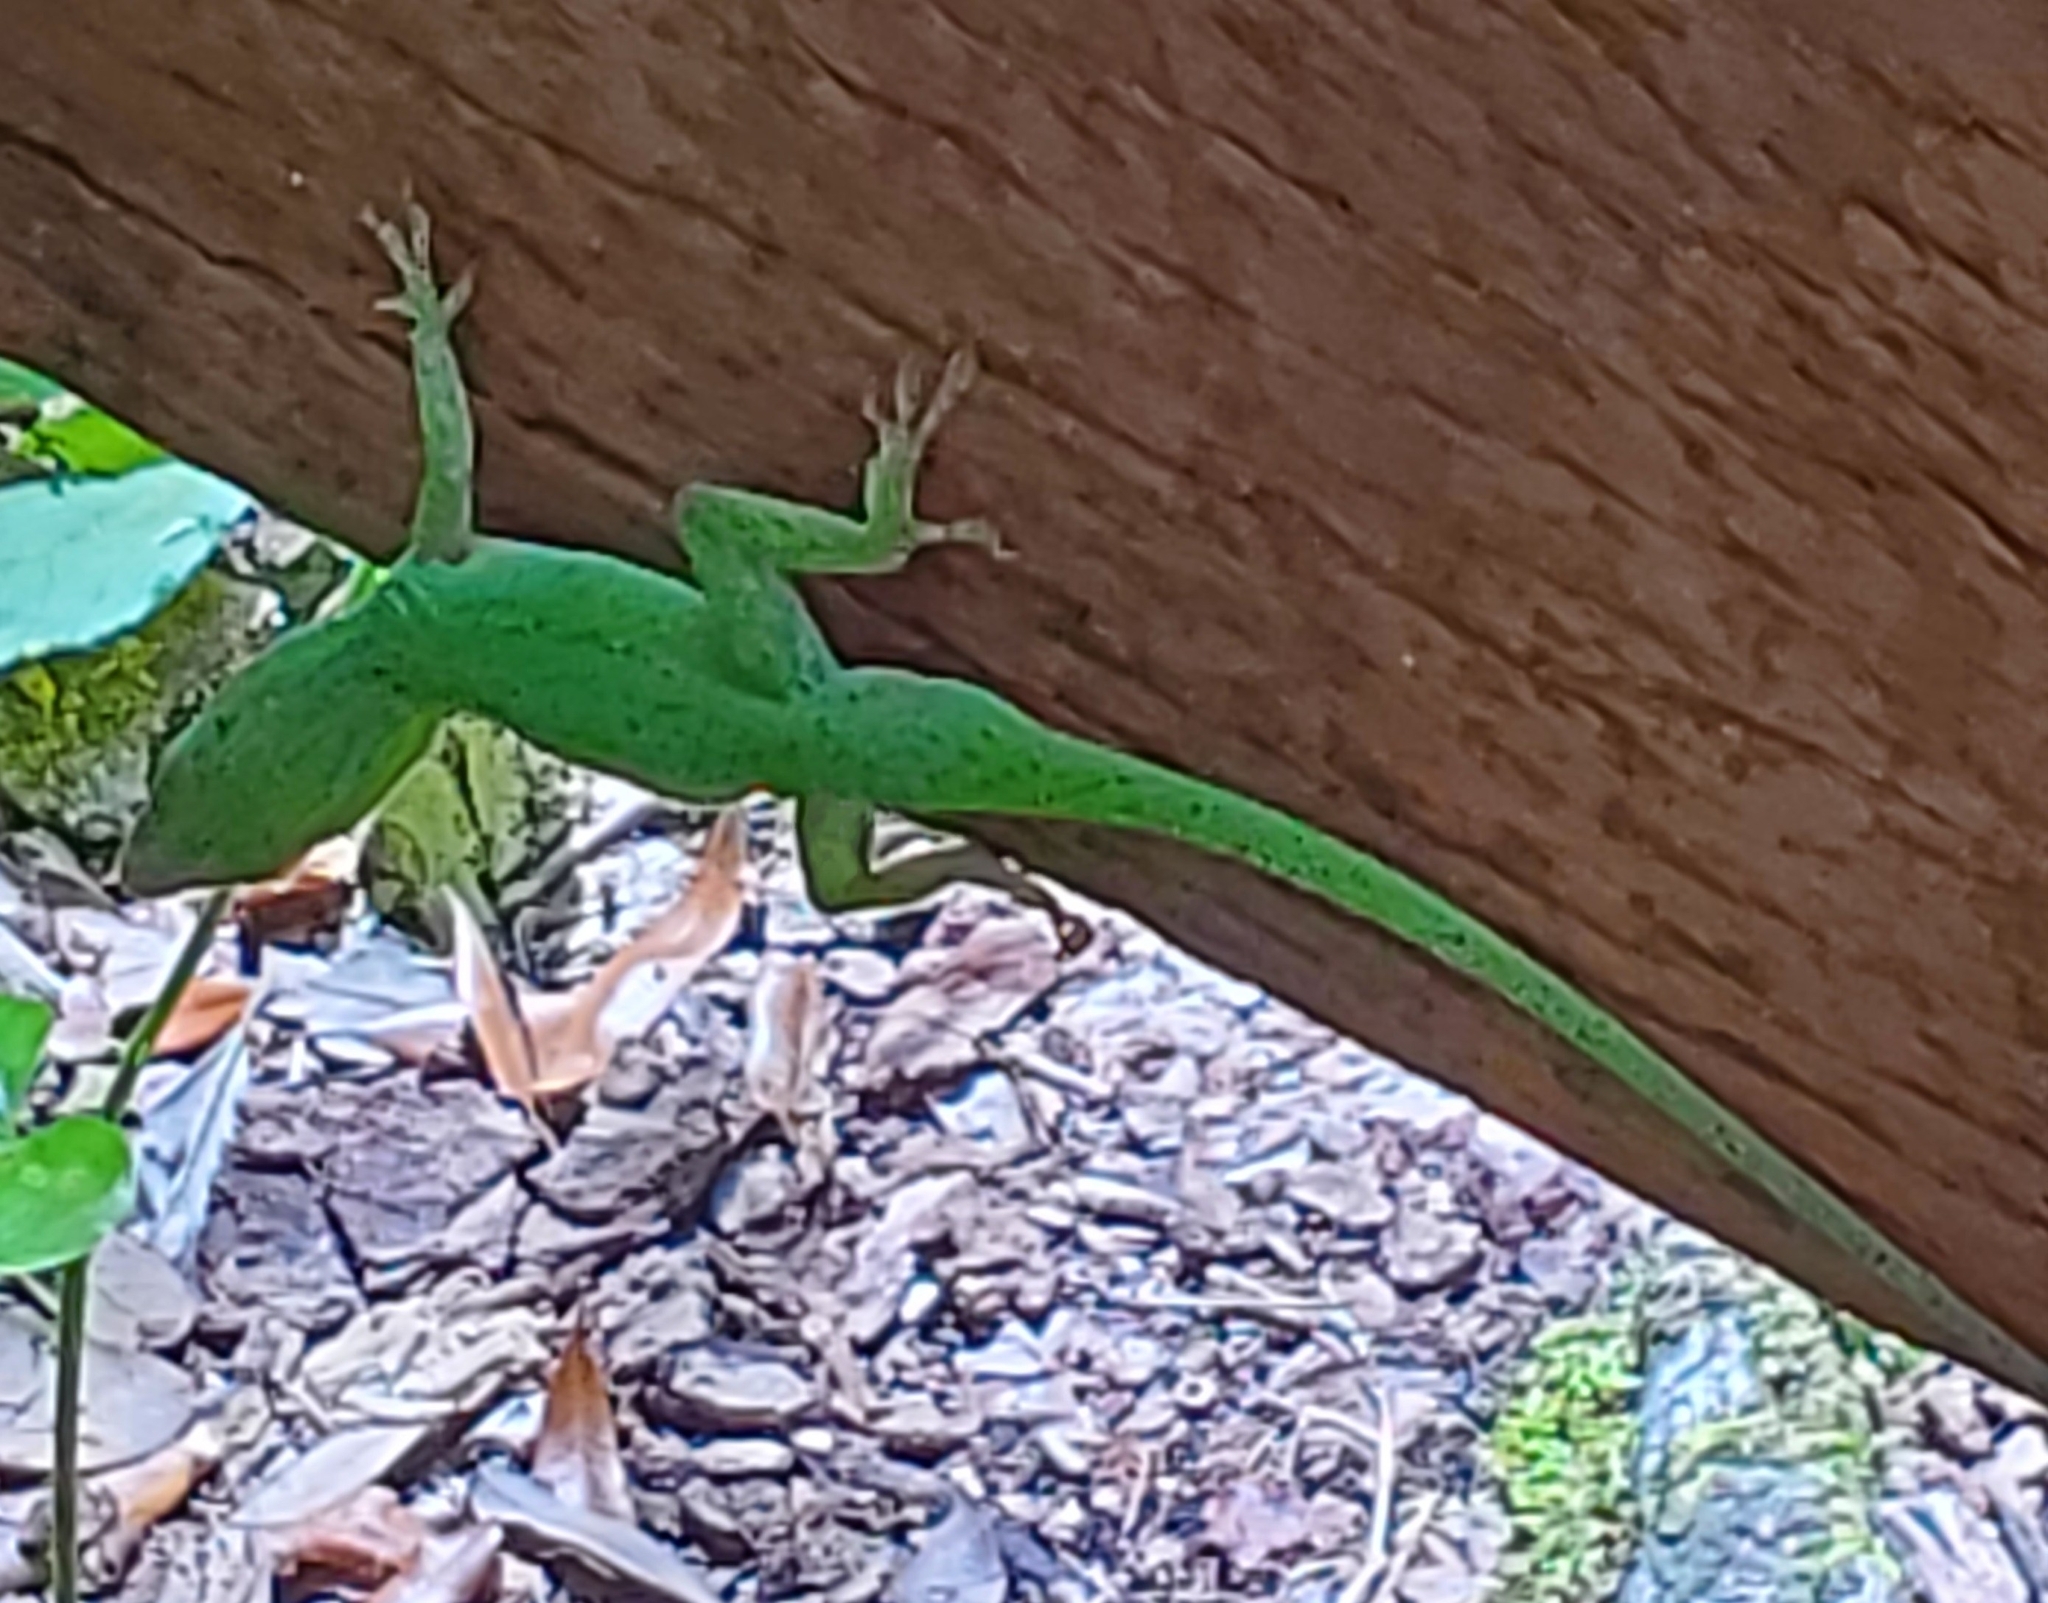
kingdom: Animalia
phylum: Chordata
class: Squamata
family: Dactyloidae
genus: Anolis
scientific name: Anolis carolinensis
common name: Green anole
